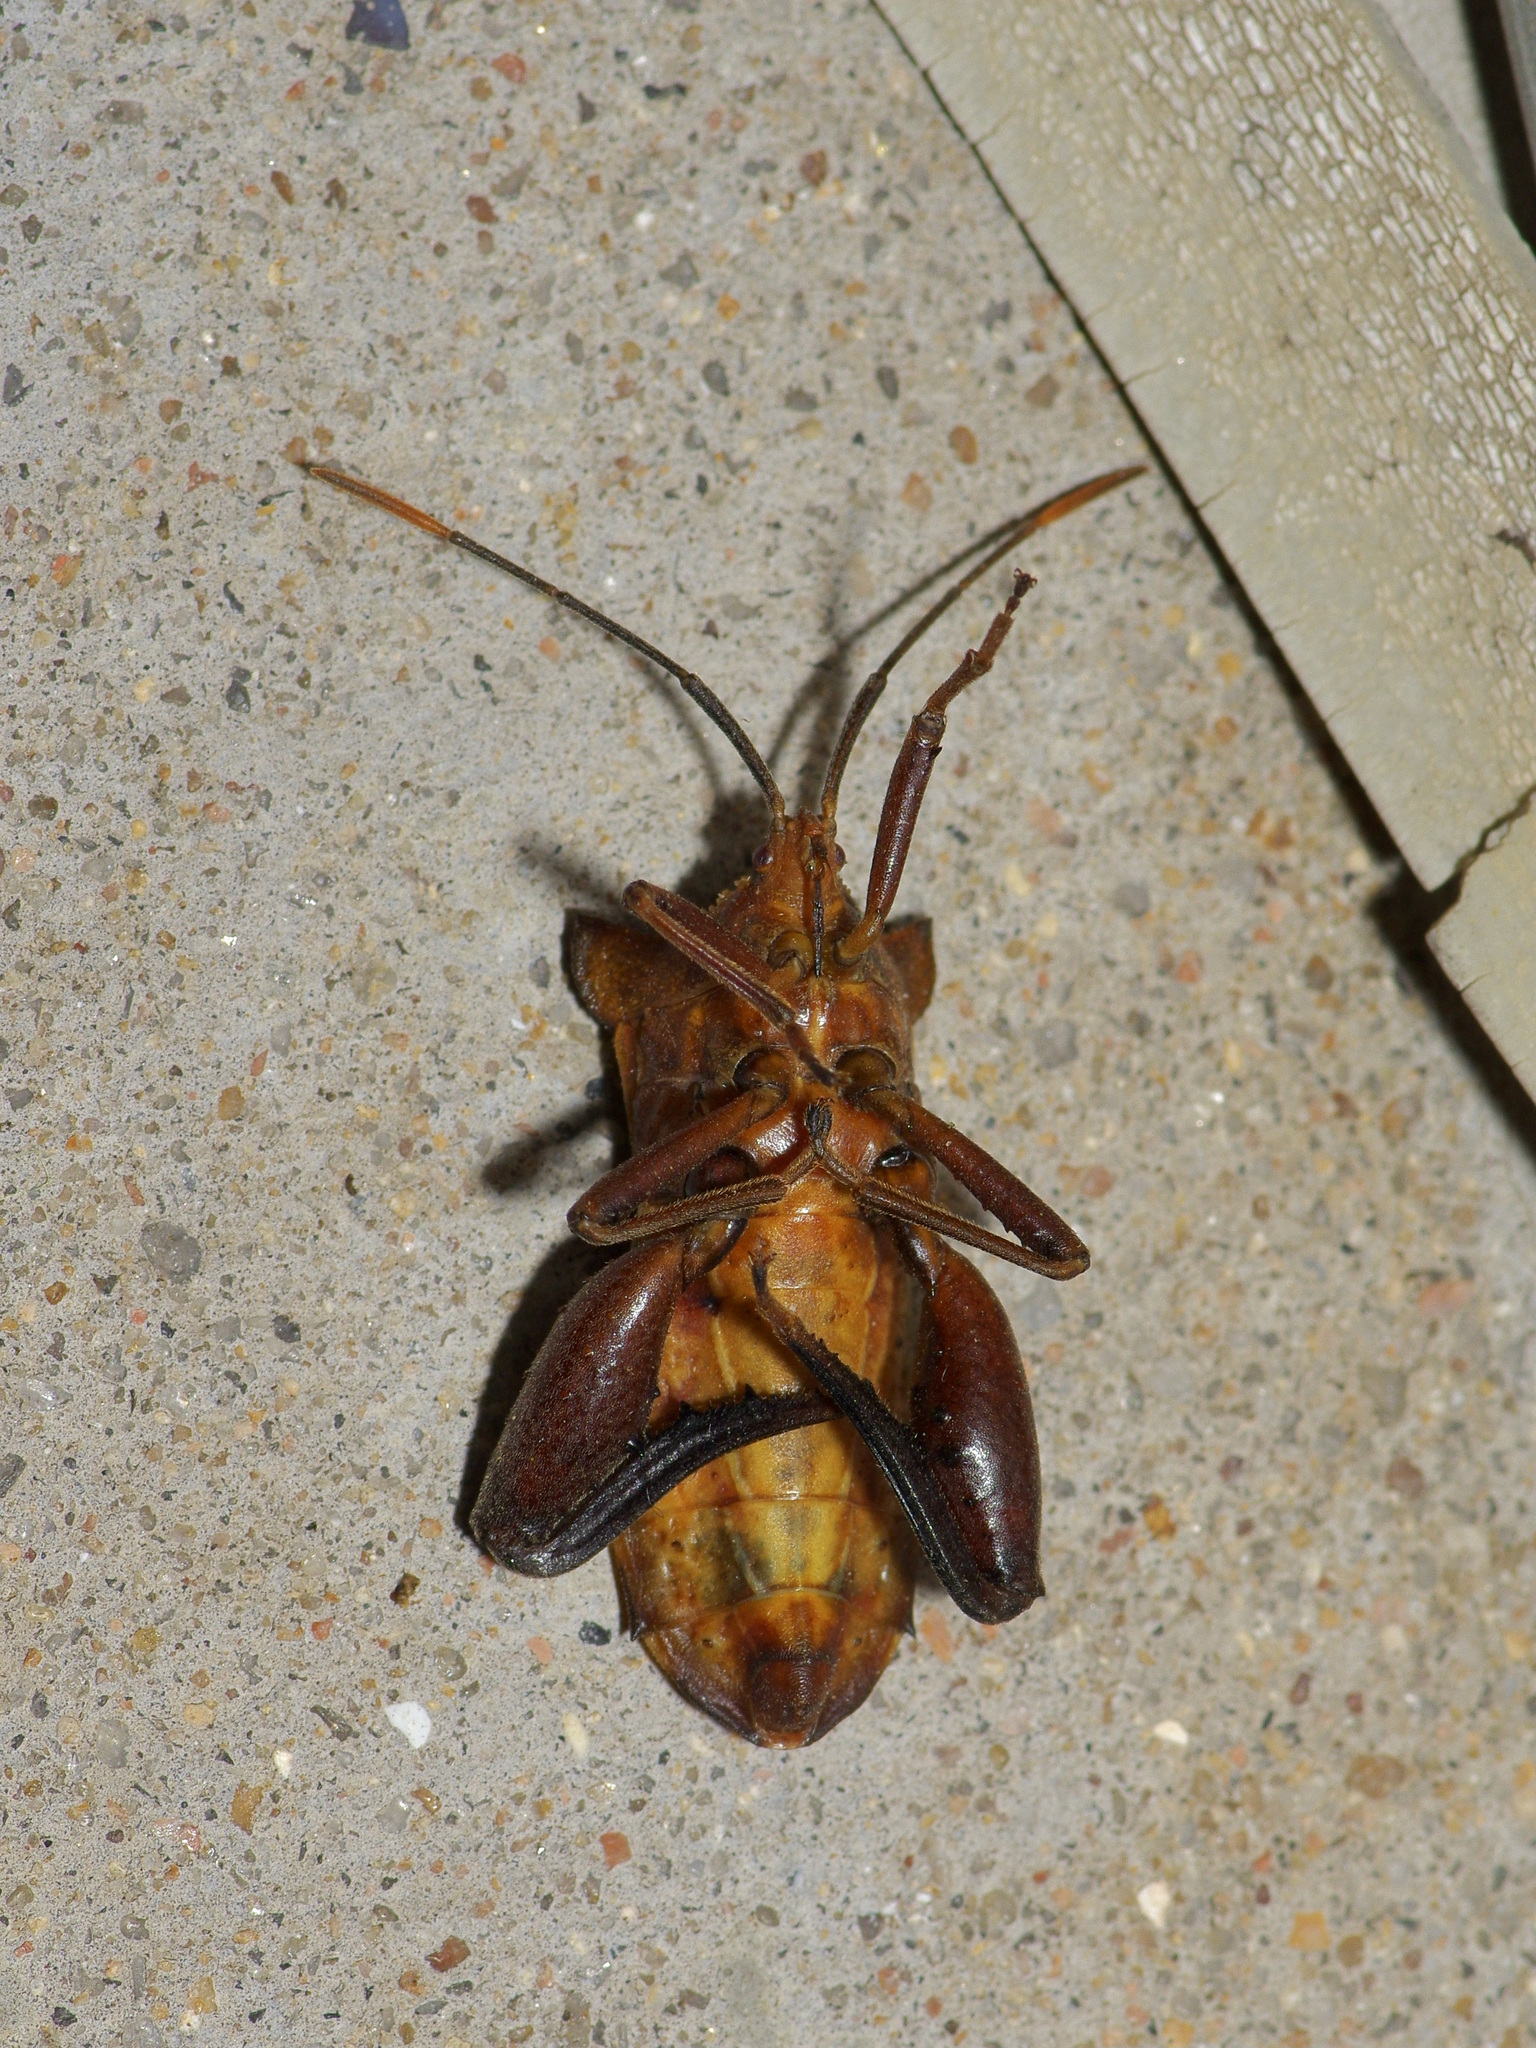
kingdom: Animalia
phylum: Arthropoda
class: Insecta
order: Hemiptera
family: Coreidae
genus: Mozena
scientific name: Mozena lunata
